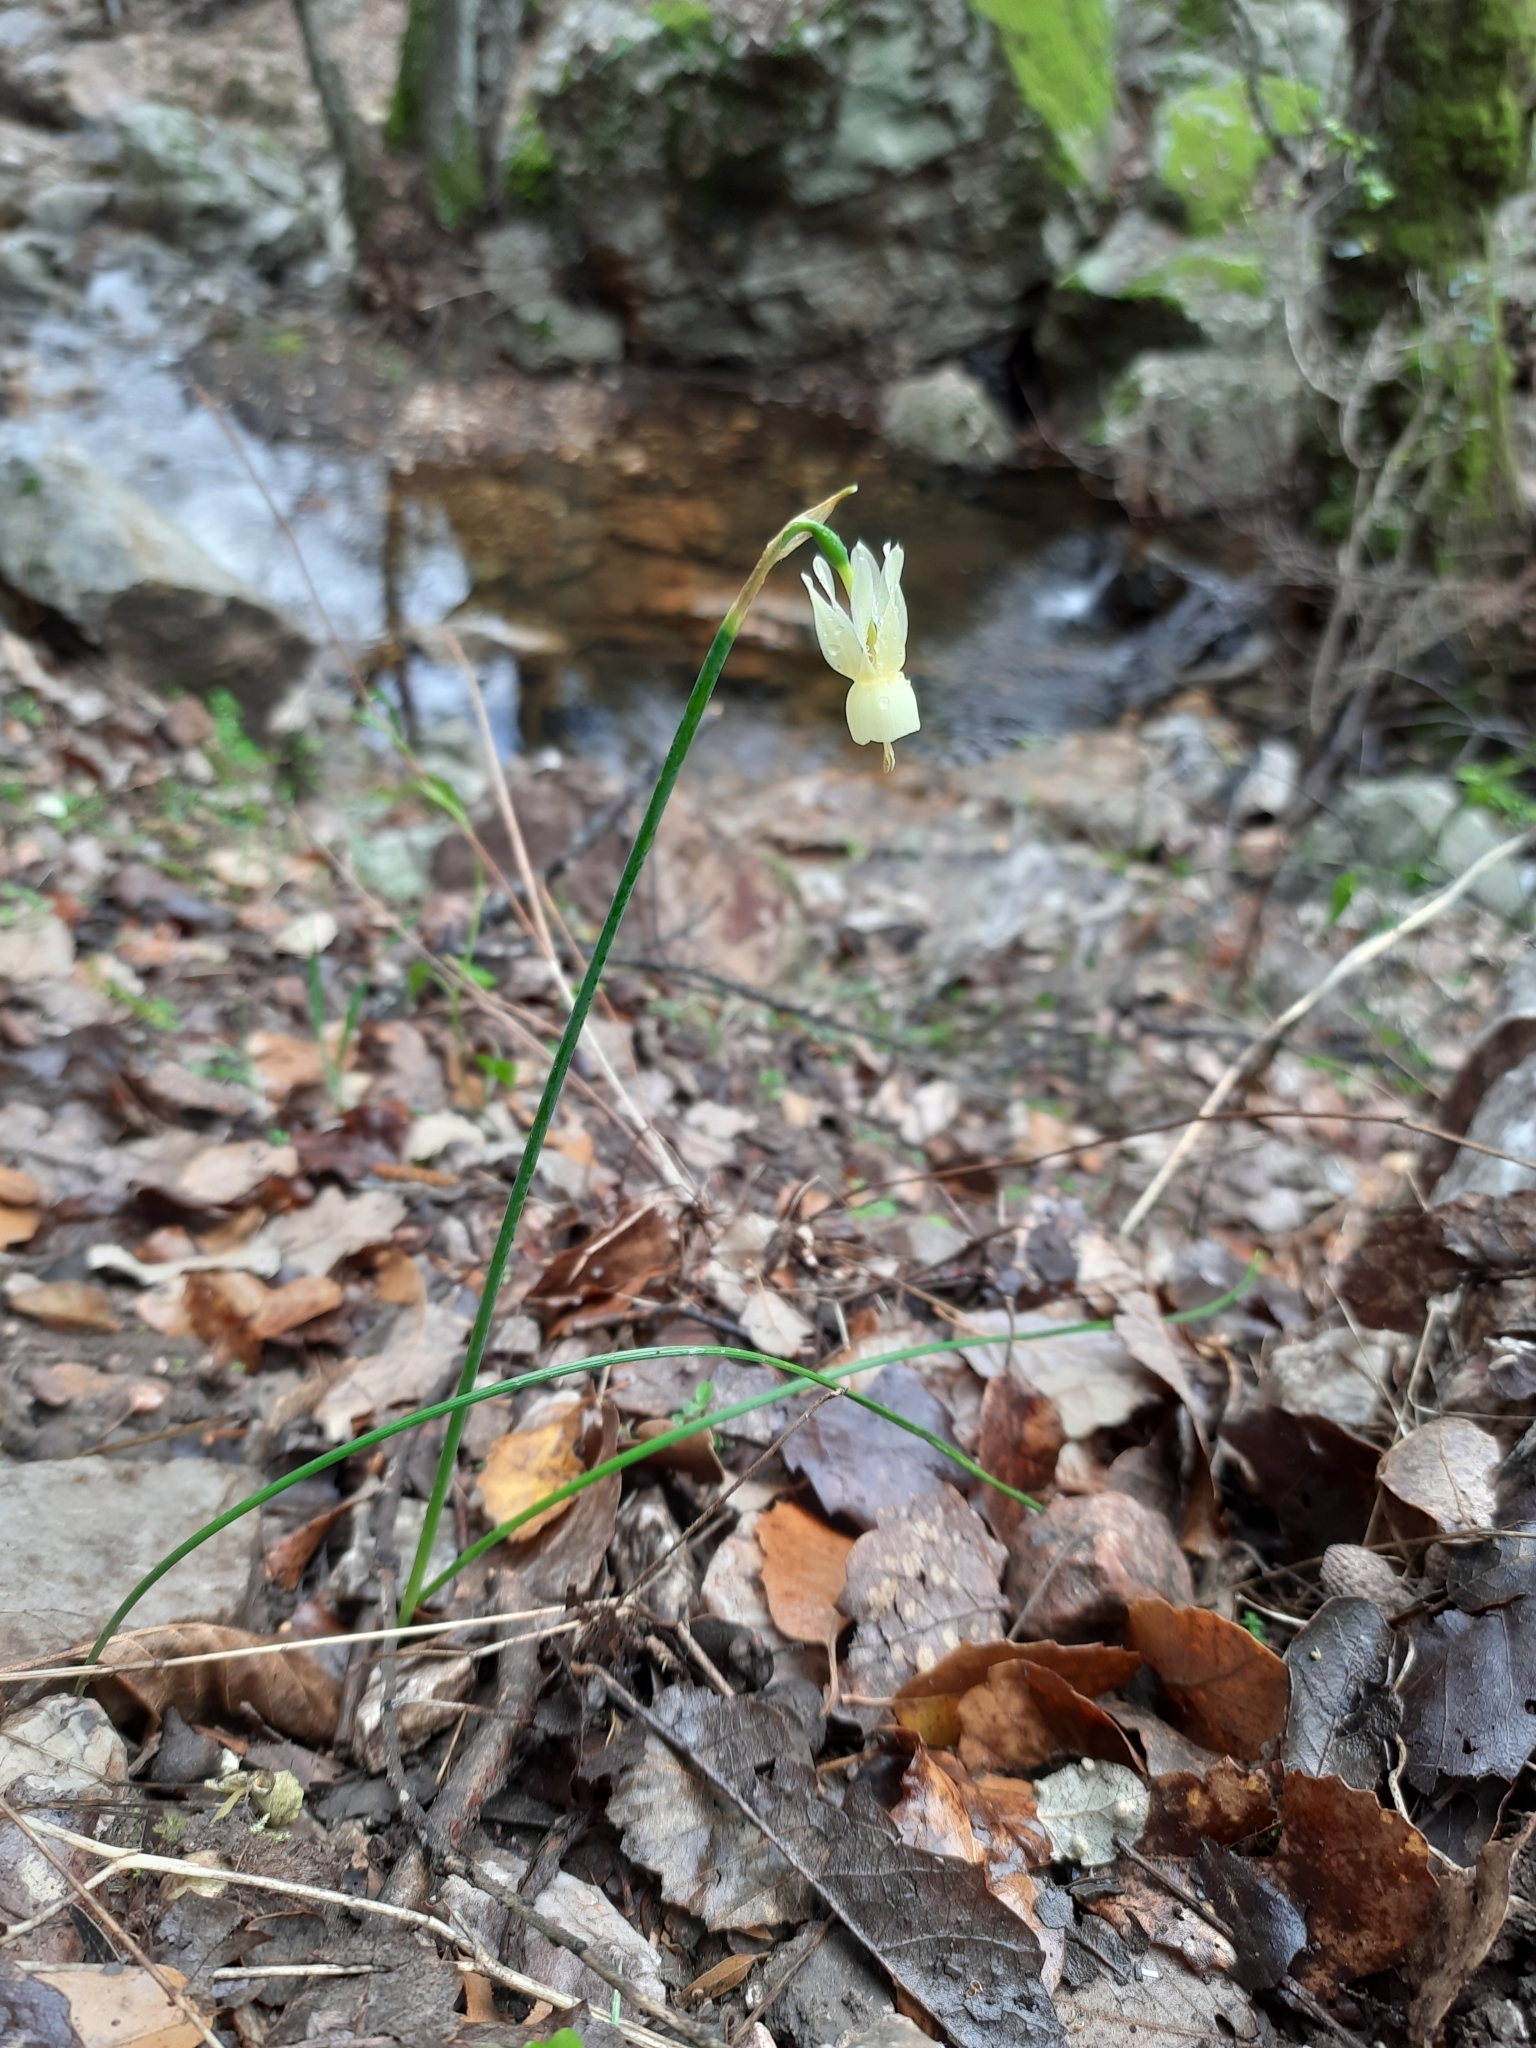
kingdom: Plantae
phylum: Tracheophyta
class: Liliopsida
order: Asparagales
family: Amaryllidaceae
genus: Narcissus
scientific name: Narcissus triandrus
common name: Angel's-tears
